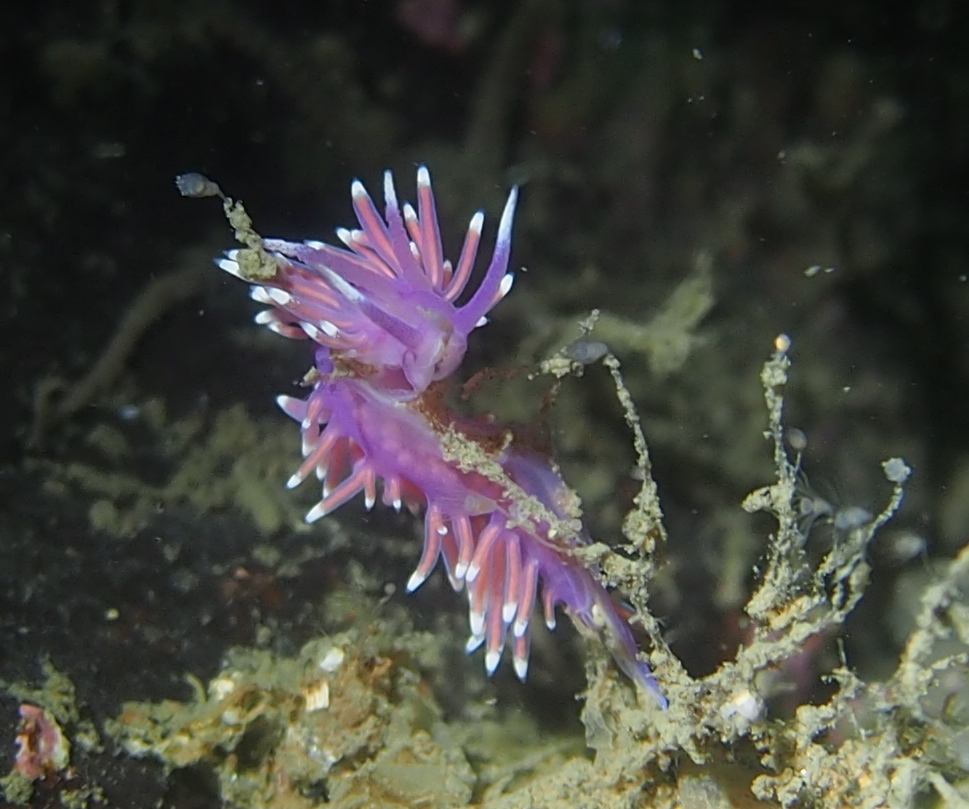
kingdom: Animalia
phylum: Mollusca
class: Gastropoda
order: Nudibranchia
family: Flabellinidae
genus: Edmundsella
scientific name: Edmundsella pedata
